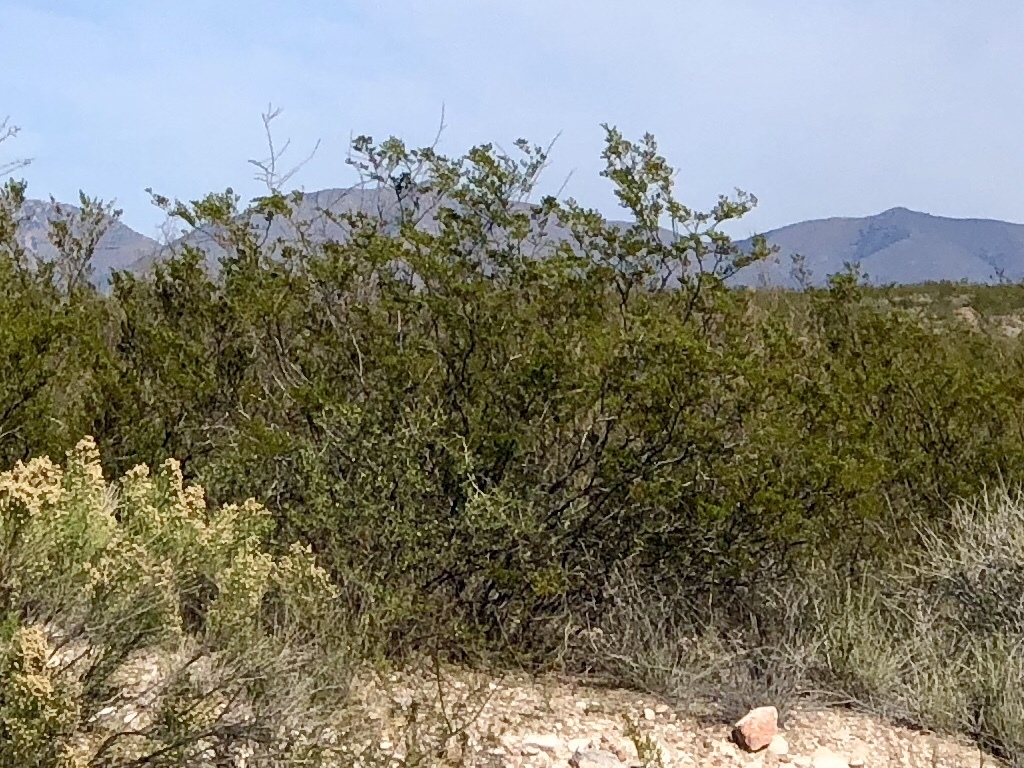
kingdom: Plantae
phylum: Tracheophyta
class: Magnoliopsida
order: Zygophyllales
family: Zygophyllaceae
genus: Larrea
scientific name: Larrea tridentata
